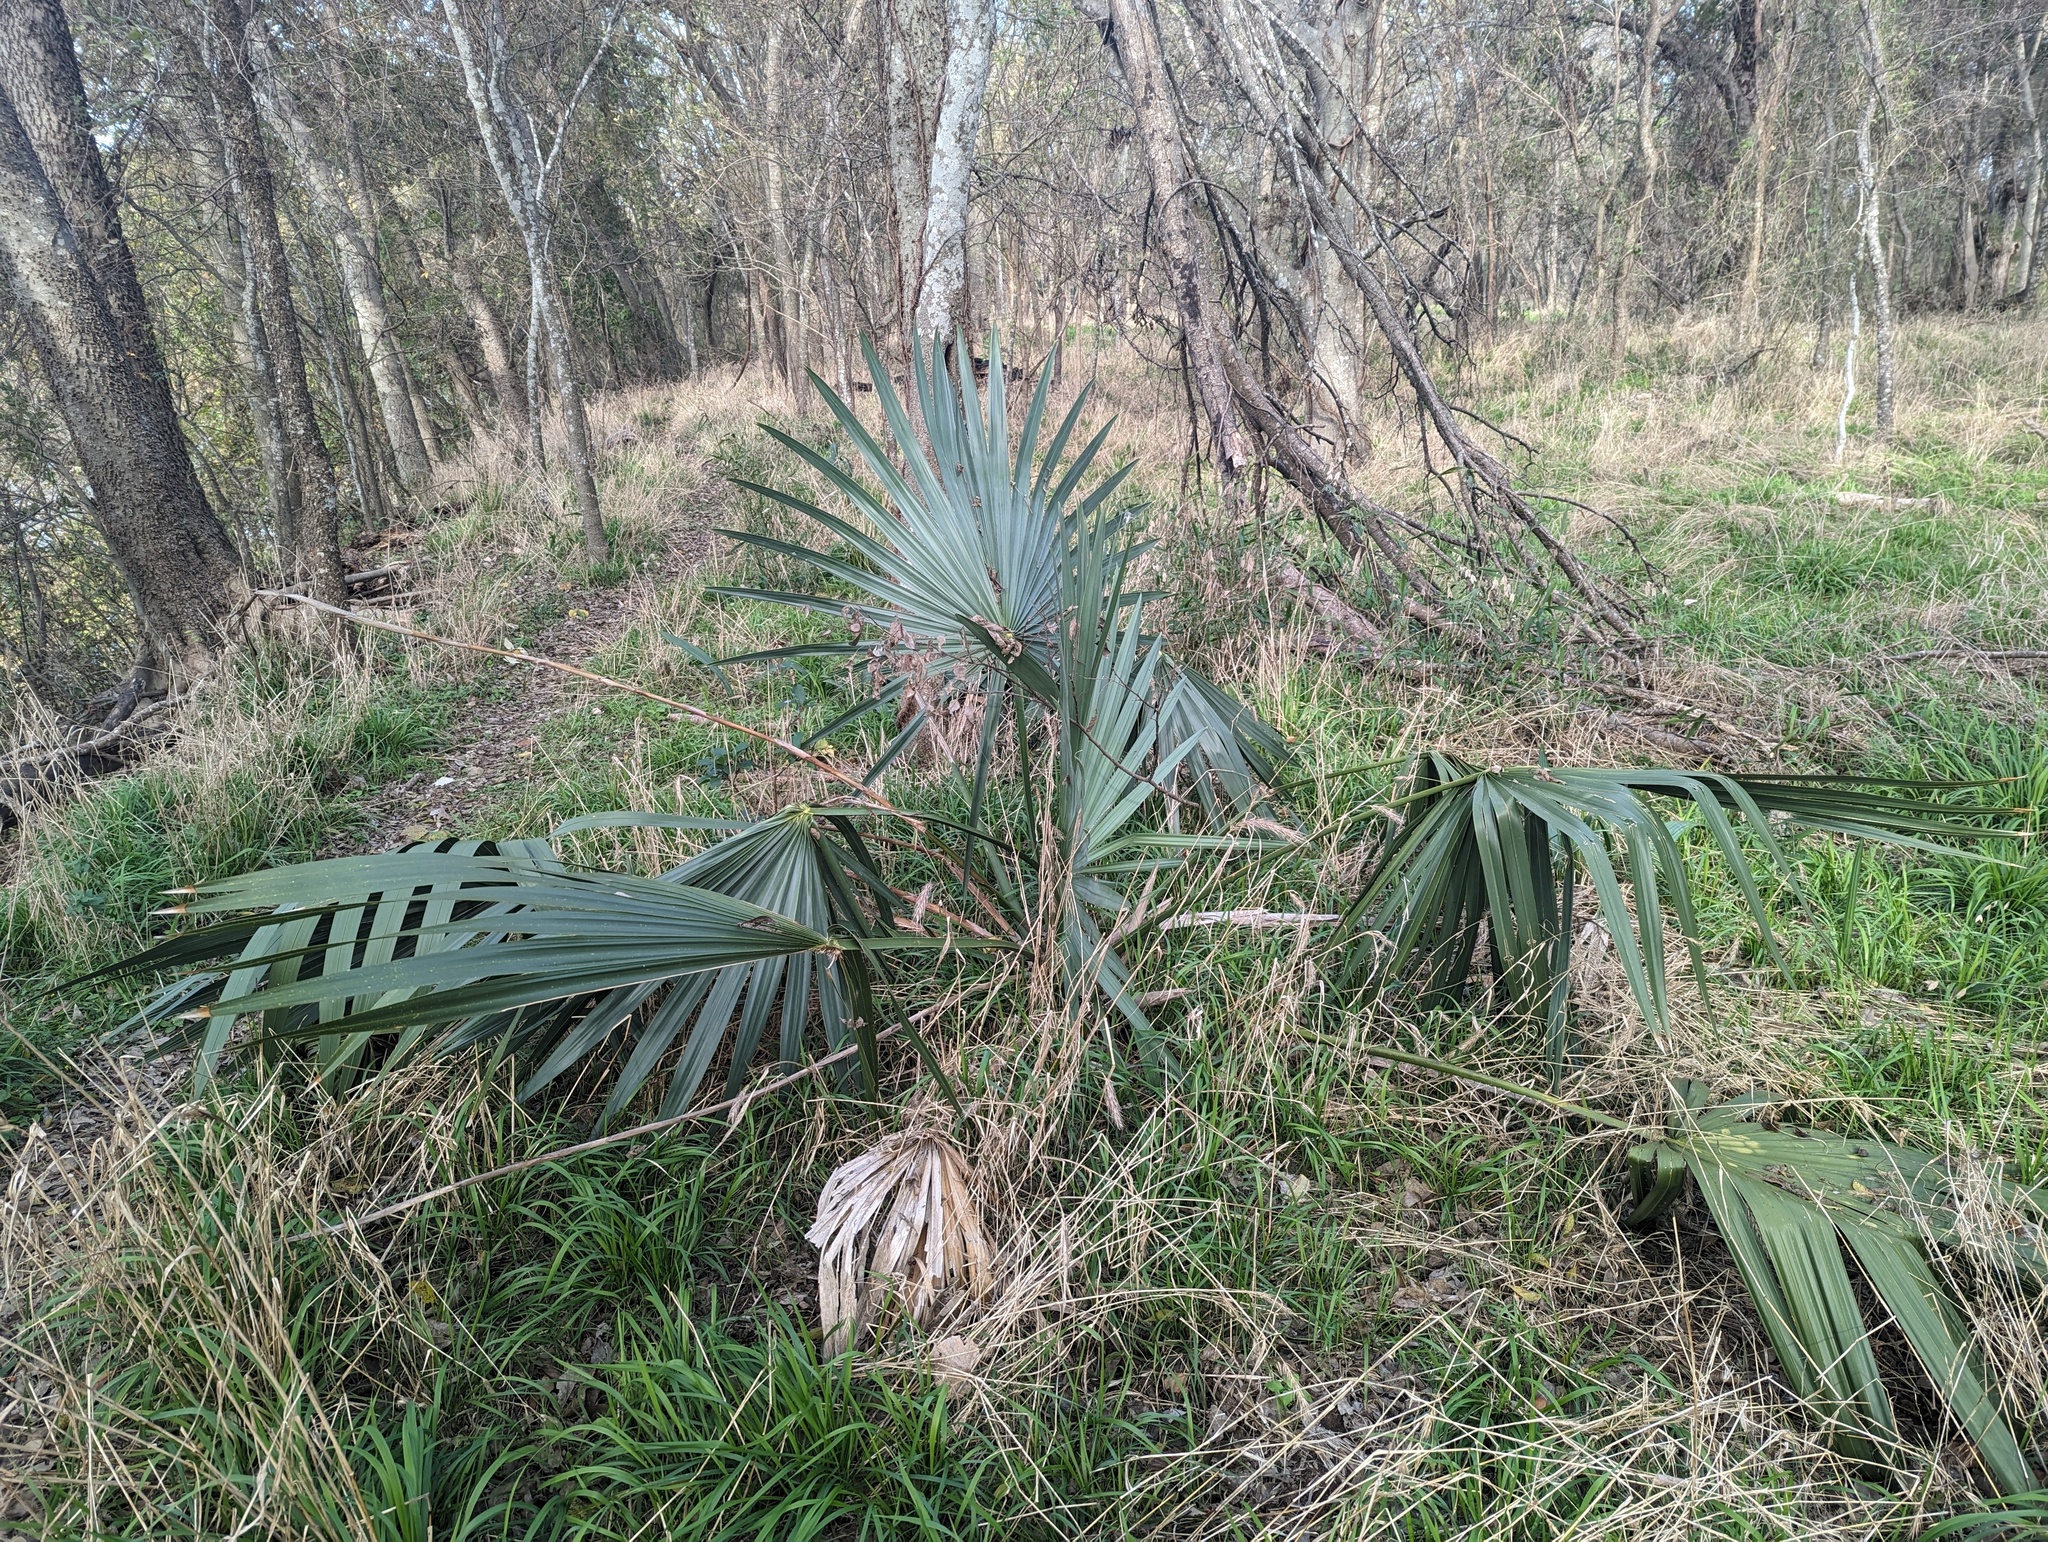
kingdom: Plantae
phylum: Tracheophyta
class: Liliopsida
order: Arecales
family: Arecaceae
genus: Sabal
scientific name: Sabal minor
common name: Dwarf palmetto
